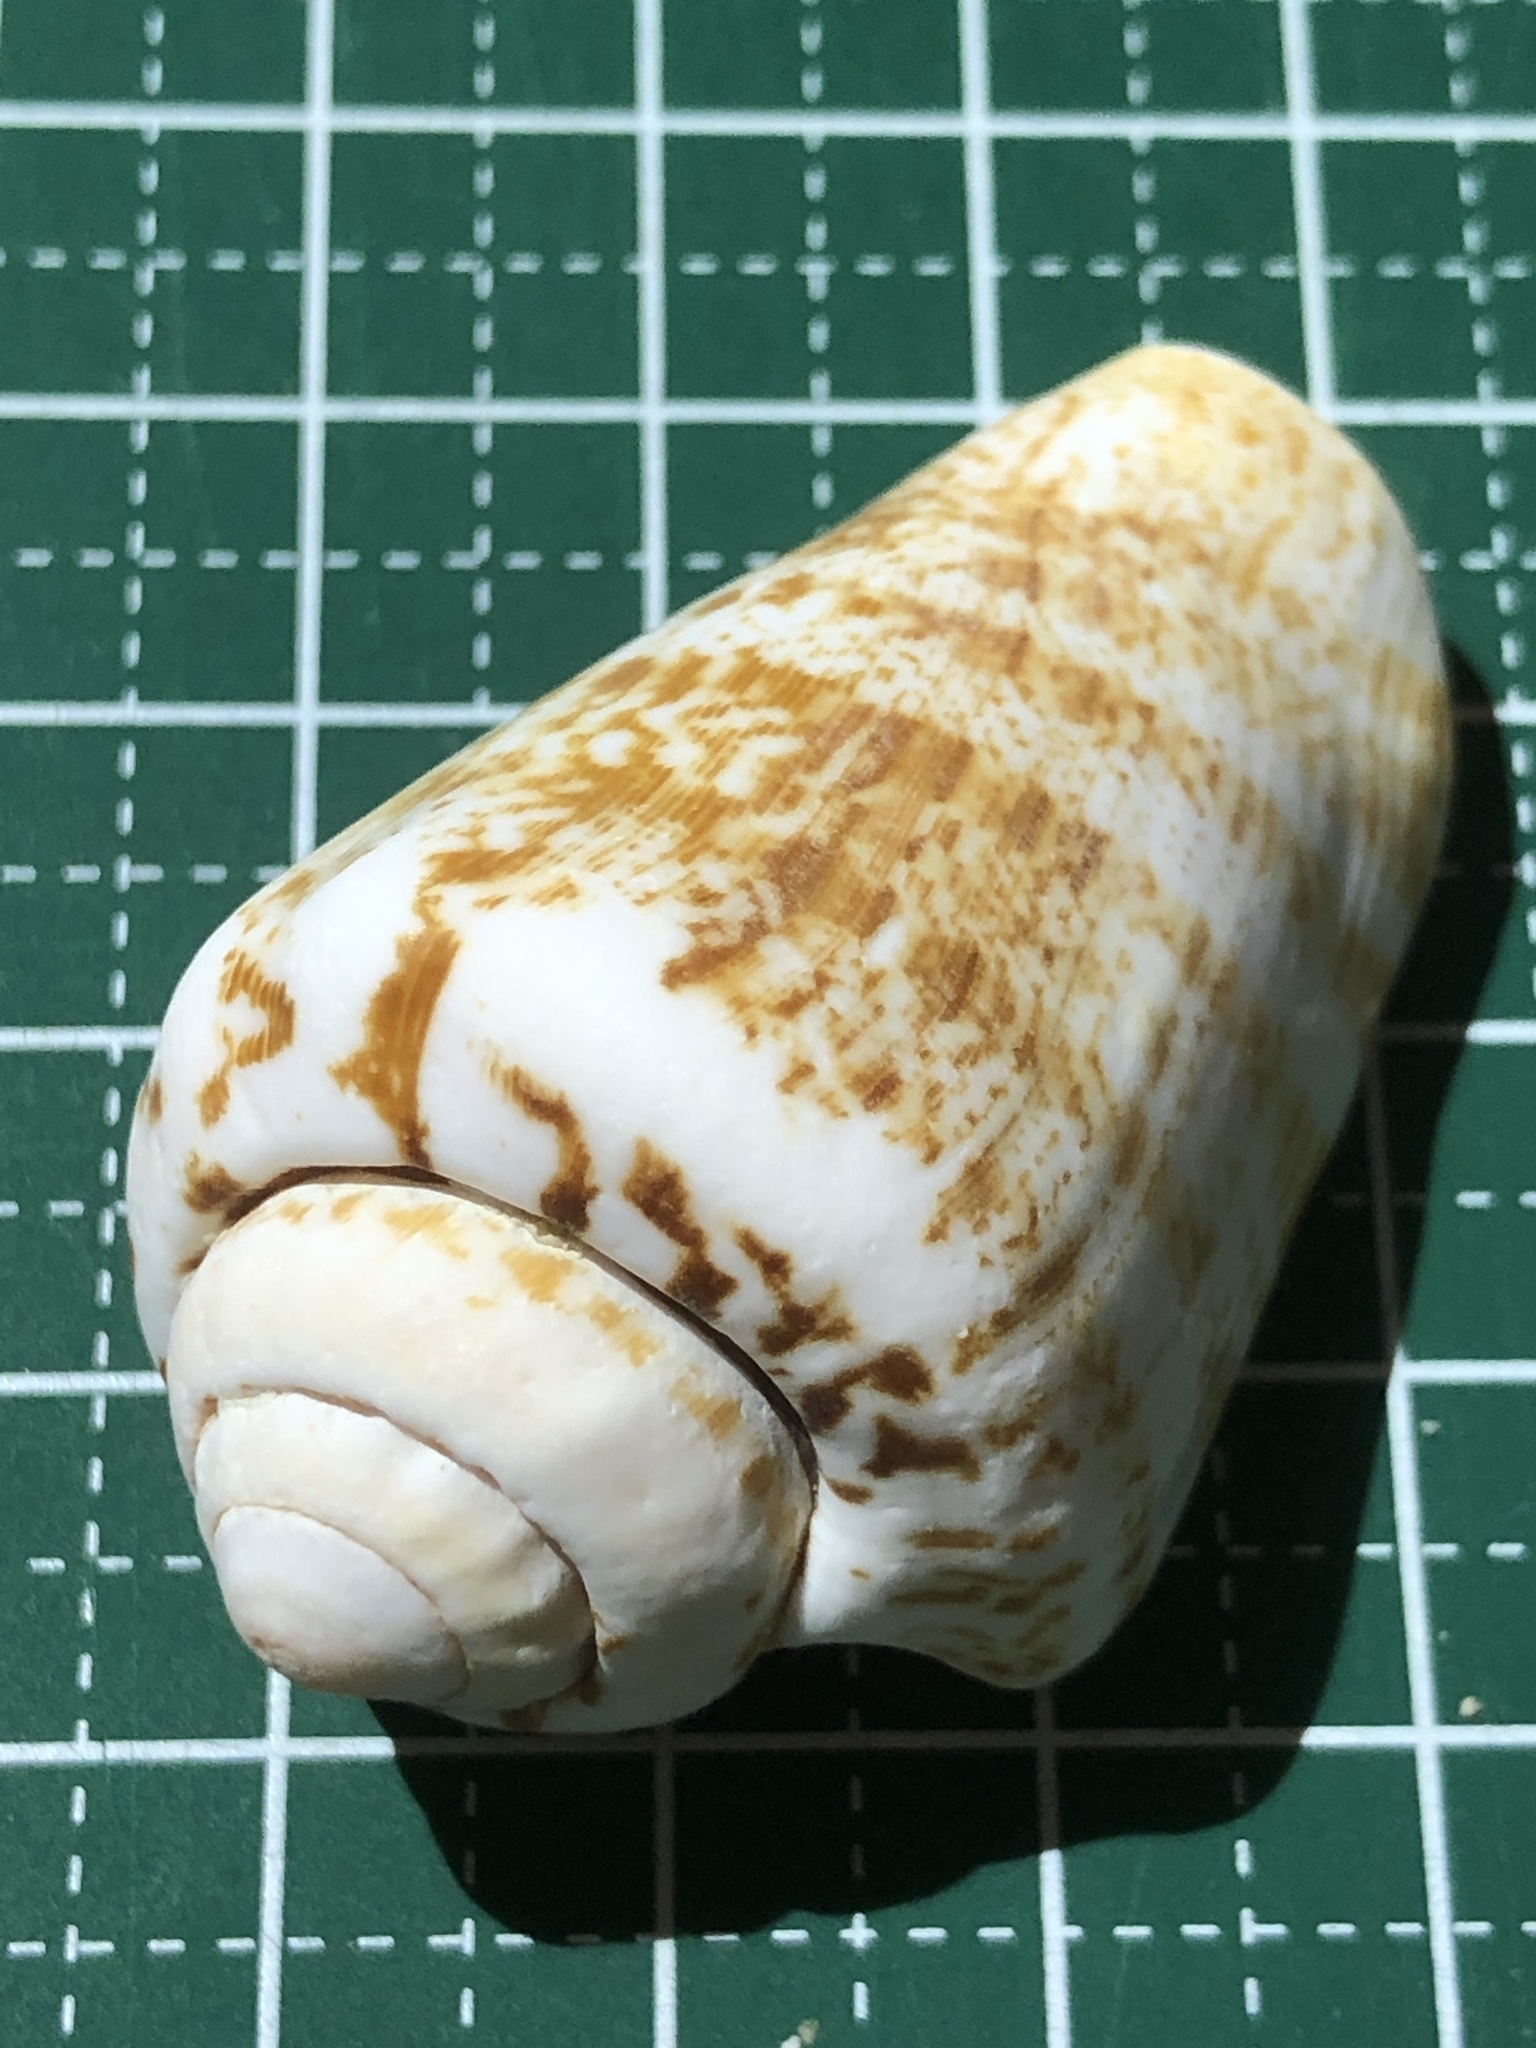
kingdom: Animalia
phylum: Mollusca
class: Gastropoda
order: Littorinimorpha
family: Strombidae
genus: Conomurex
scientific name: Conomurex luhuanus
